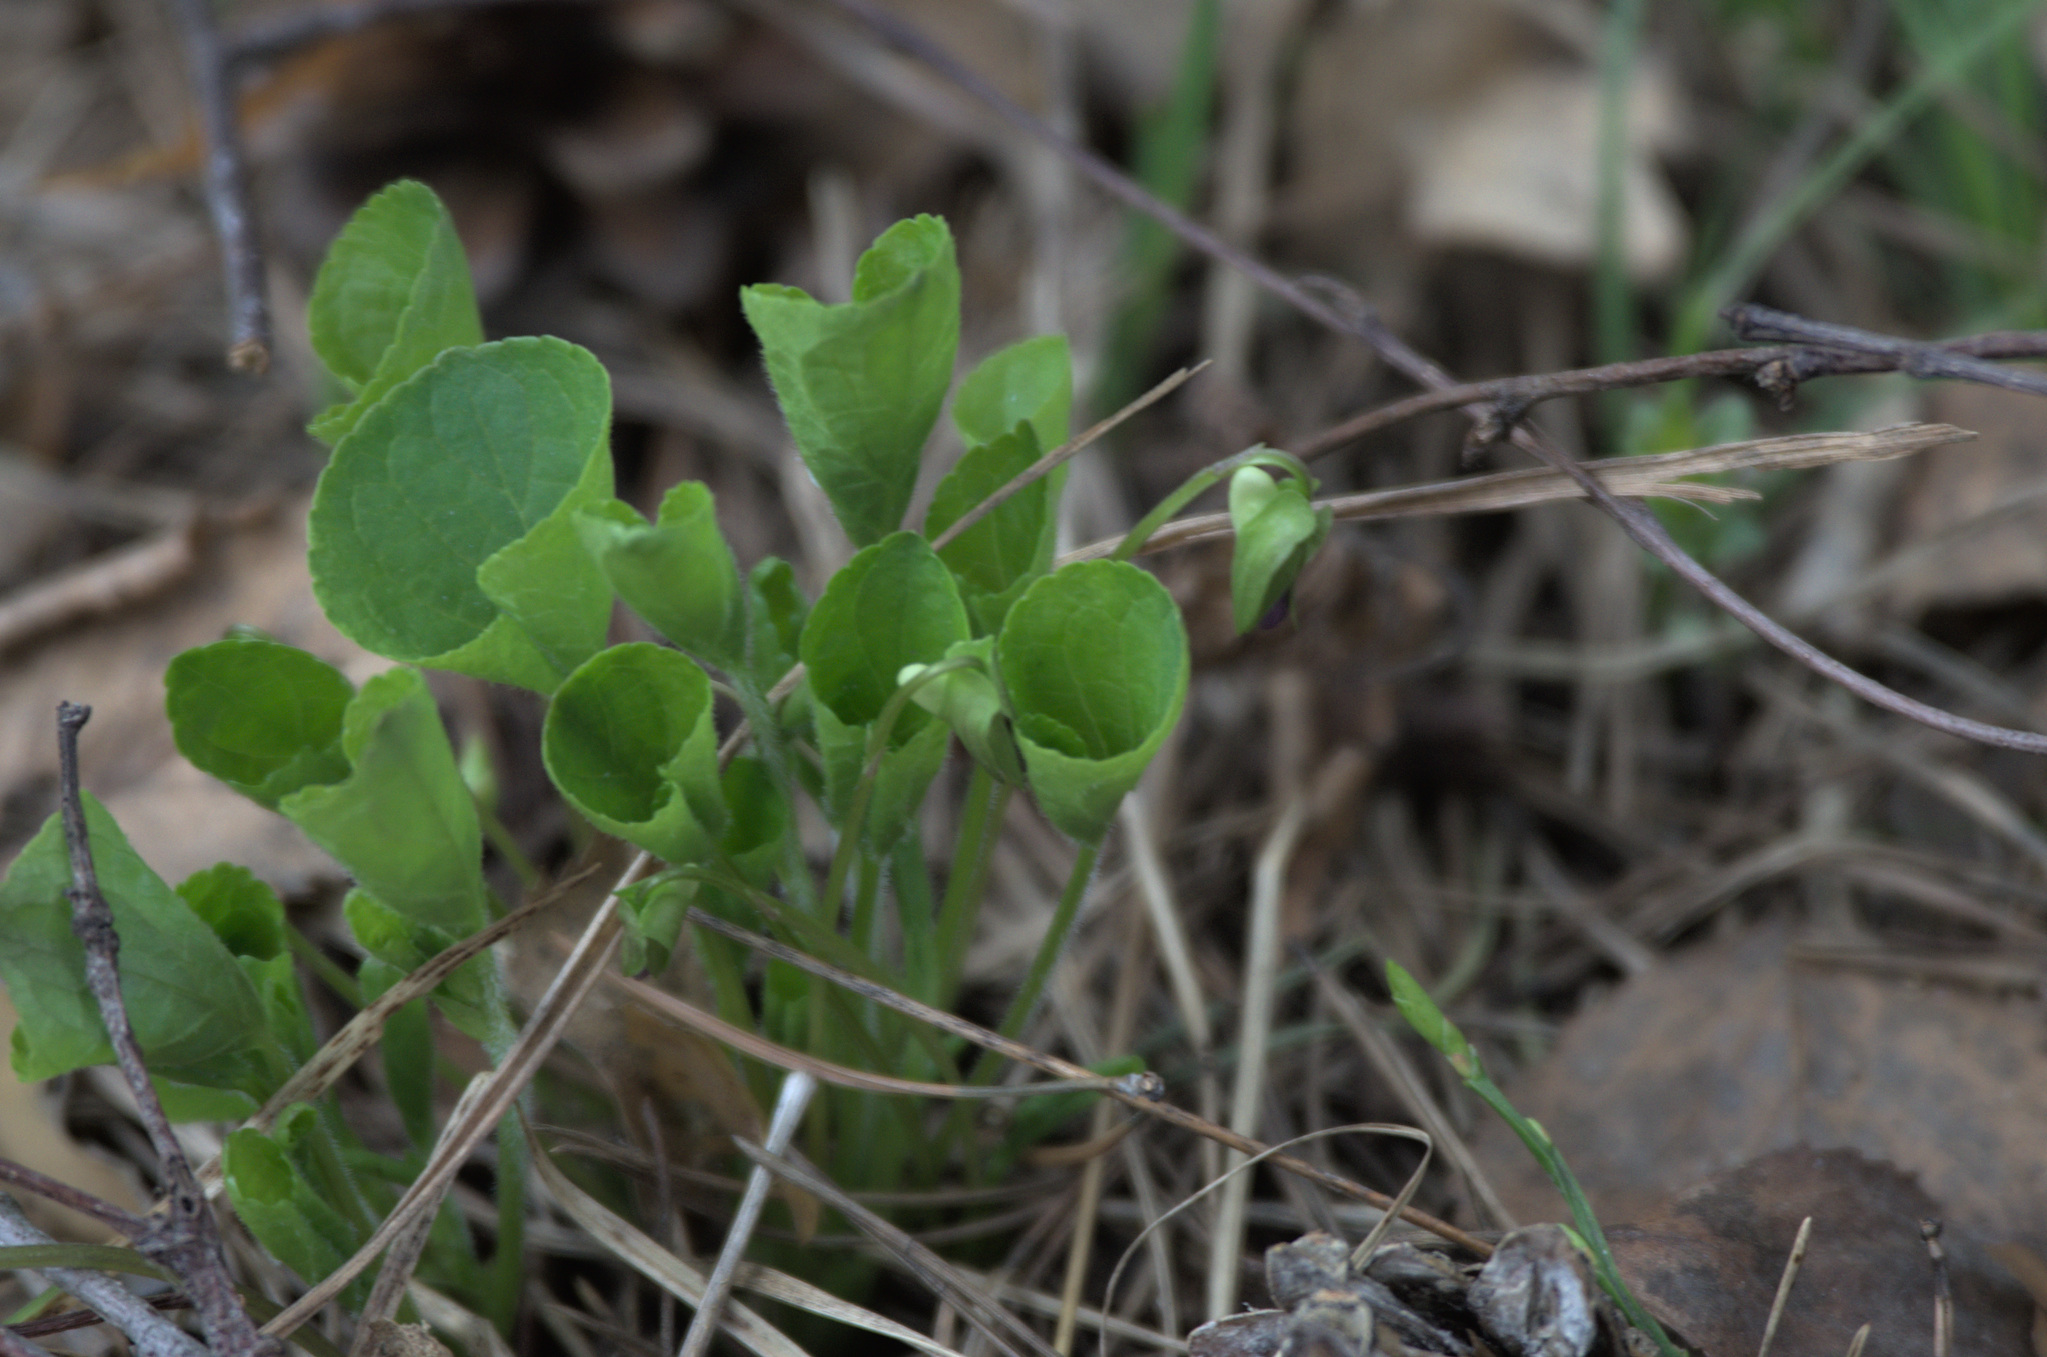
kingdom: Plantae
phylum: Tracheophyta
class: Magnoliopsida
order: Malpighiales
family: Violaceae
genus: Viola
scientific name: Viola mirabilis
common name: Wonder violet
